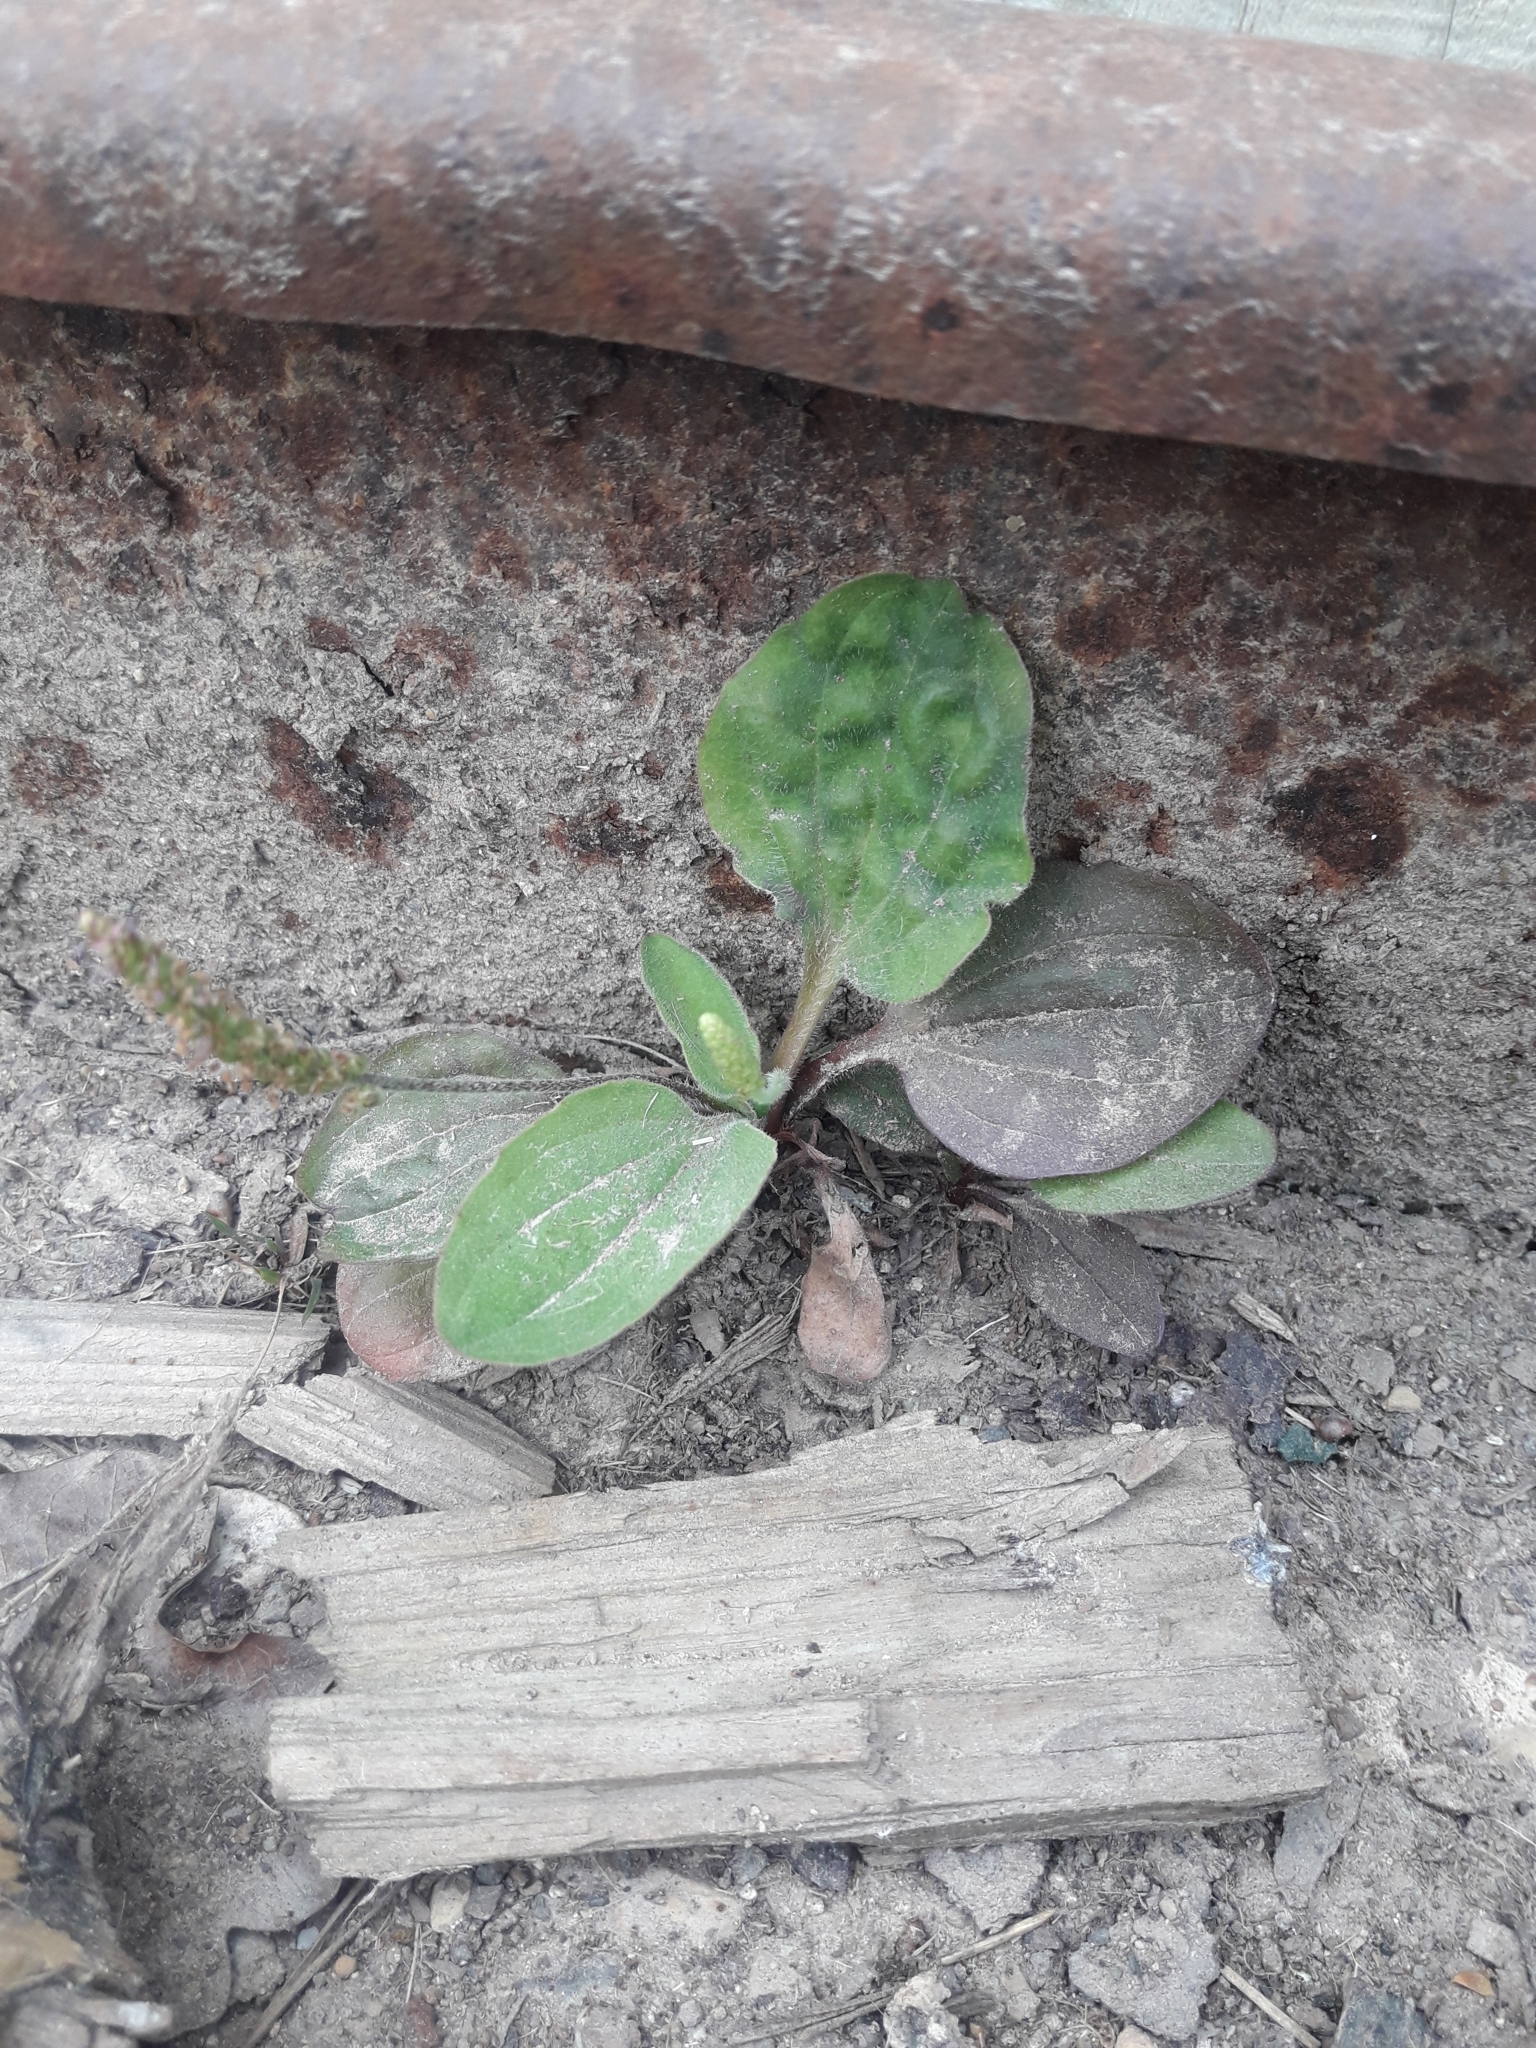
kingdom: Plantae
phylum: Tracheophyta
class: Magnoliopsida
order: Lamiales
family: Plantaginaceae
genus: Plantago
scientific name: Plantago major
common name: Common plantain
